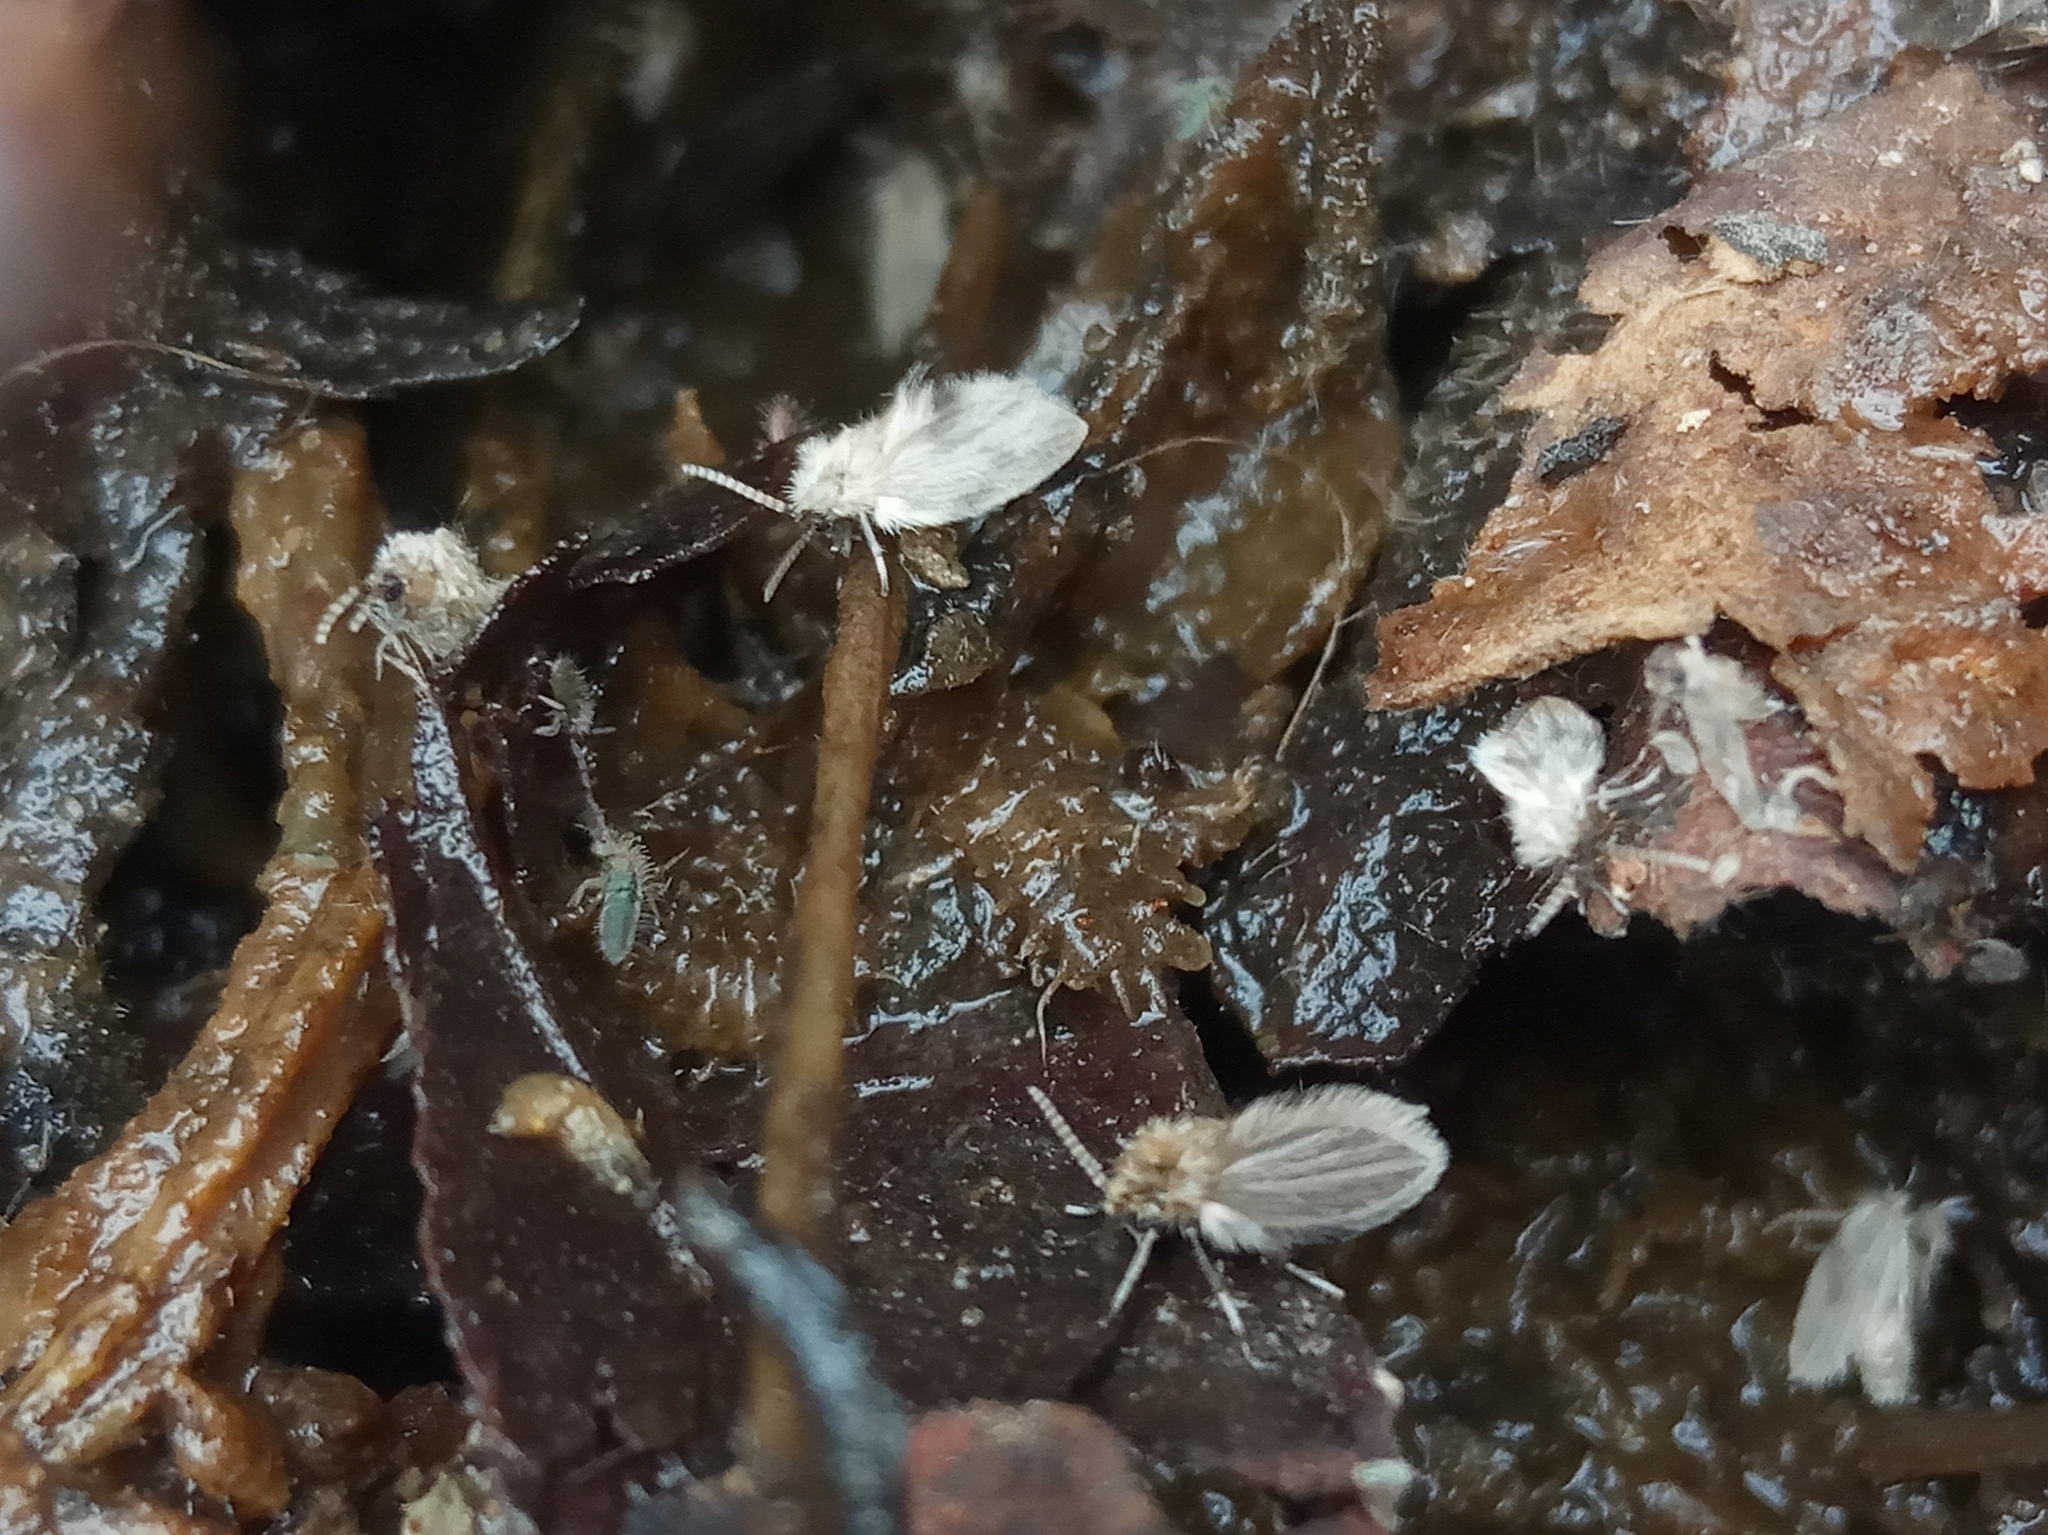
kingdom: Animalia
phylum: Arthropoda
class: Insecta
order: Diptera
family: Psychodidae
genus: Psychoda
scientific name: Psychoda sigma
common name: Moth fly
